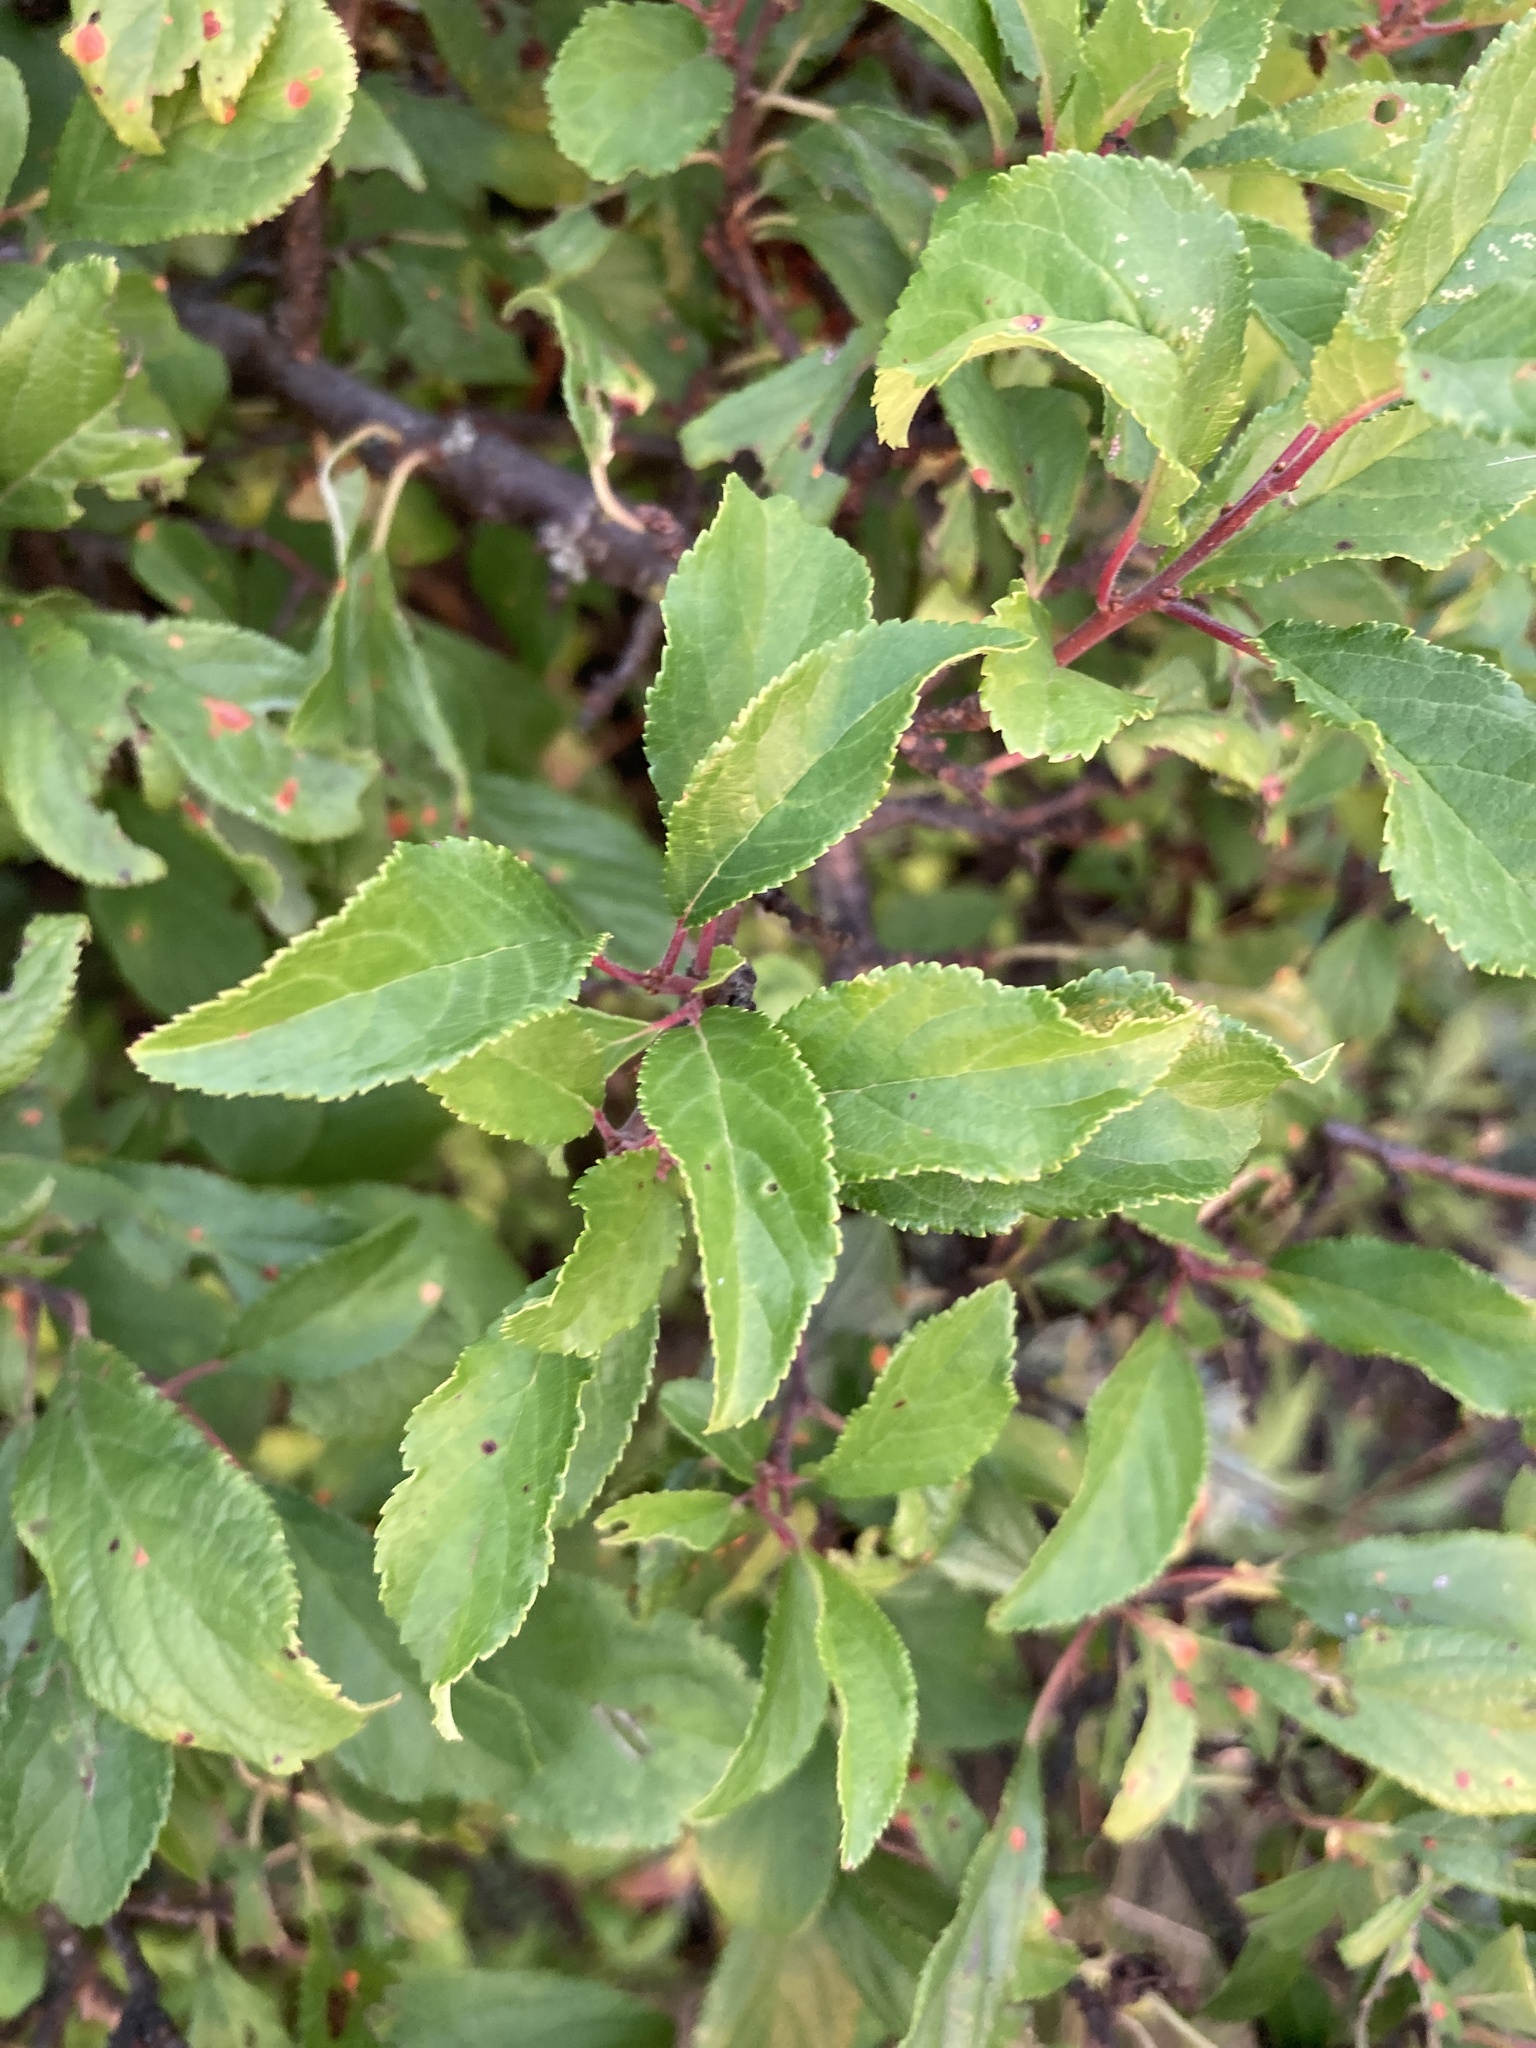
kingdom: Plantae
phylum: Tracheophyta
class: Magnoliopsida
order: Rosales
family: Rosaceae
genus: Prunus
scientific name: Prunus spinosa
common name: Blackthorn
